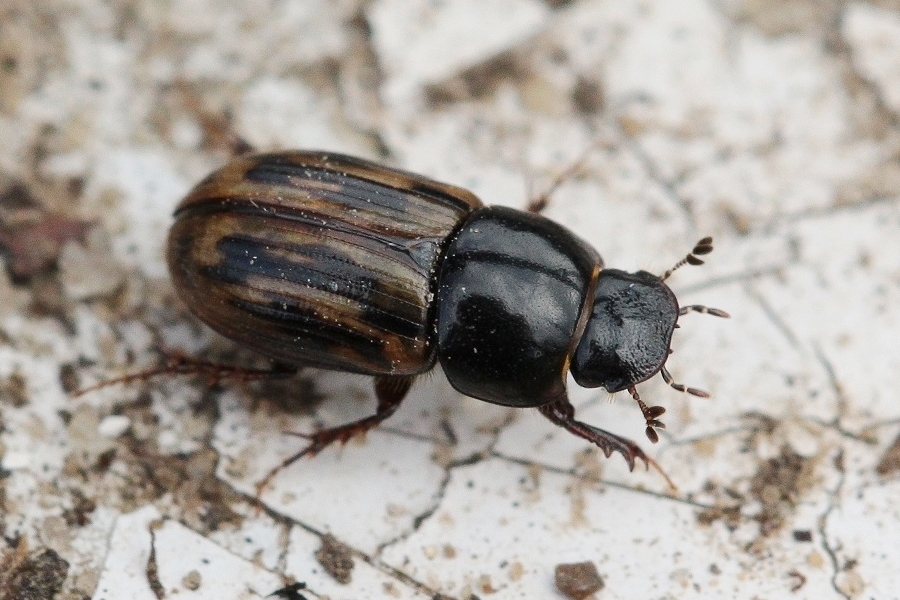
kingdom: Animalia
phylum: Arthropoda
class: Insecta
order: Coleoptera
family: Scarabaeidae
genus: Chilothorax
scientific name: Chilothorax distinctus
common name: Maculated dung beetle
